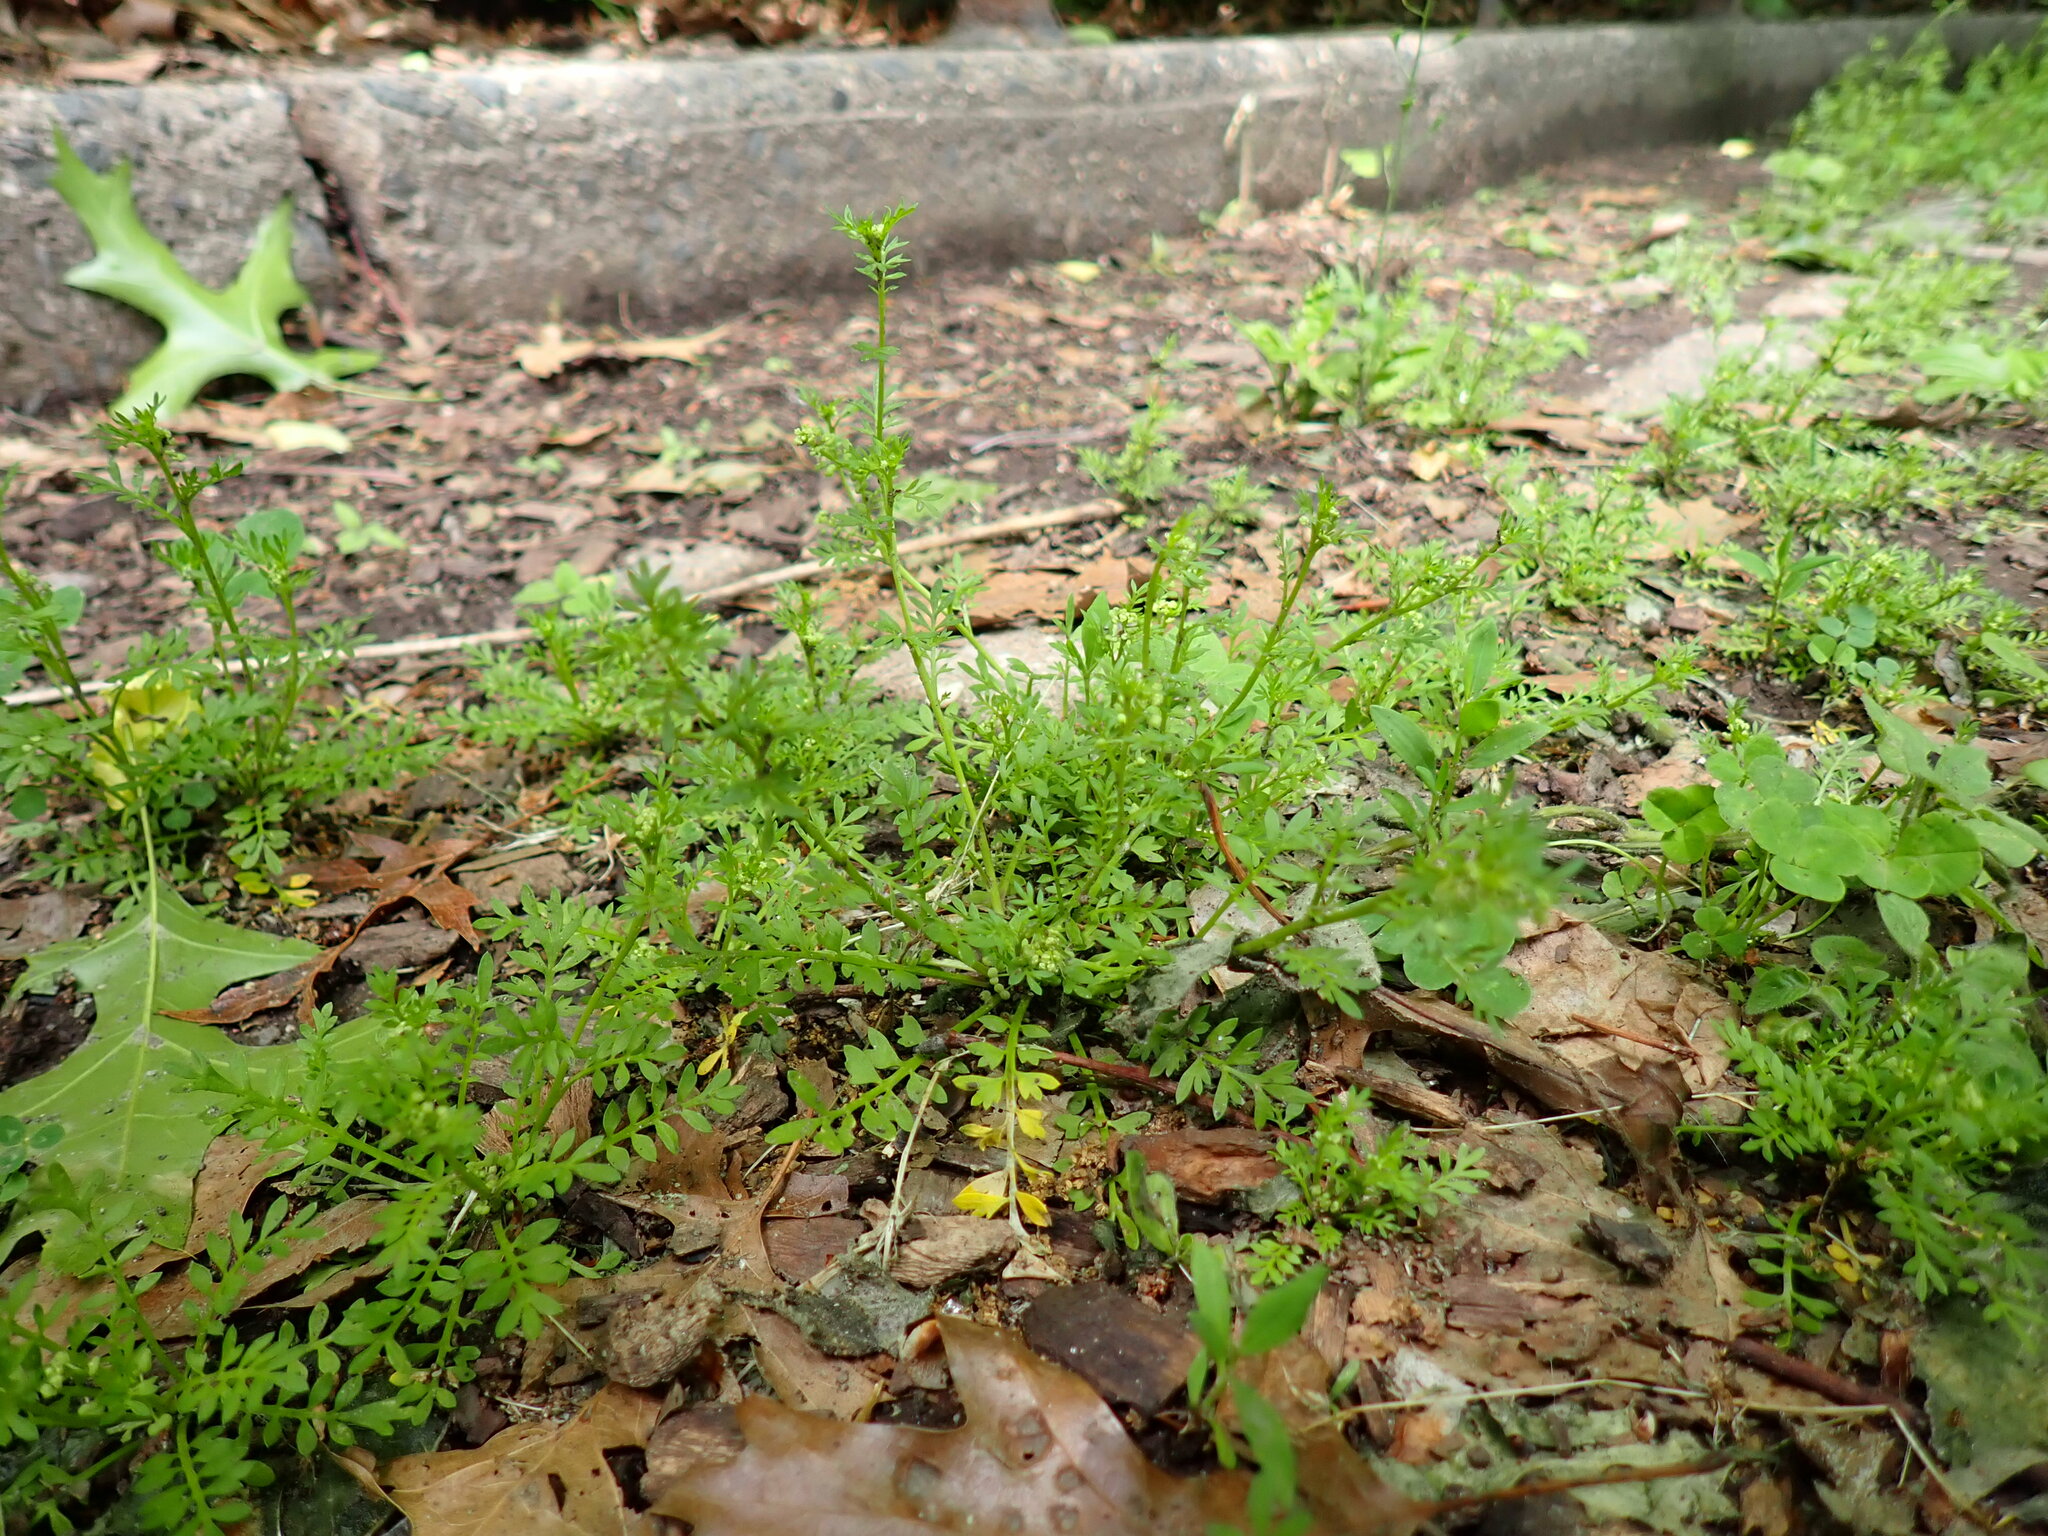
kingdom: Plantae
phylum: Tracheophyta
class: Magnoliopsida
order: Brassicales
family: Brassicaceae
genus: Lepidium
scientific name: Lepidium didymum
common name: Lesser swinecress
